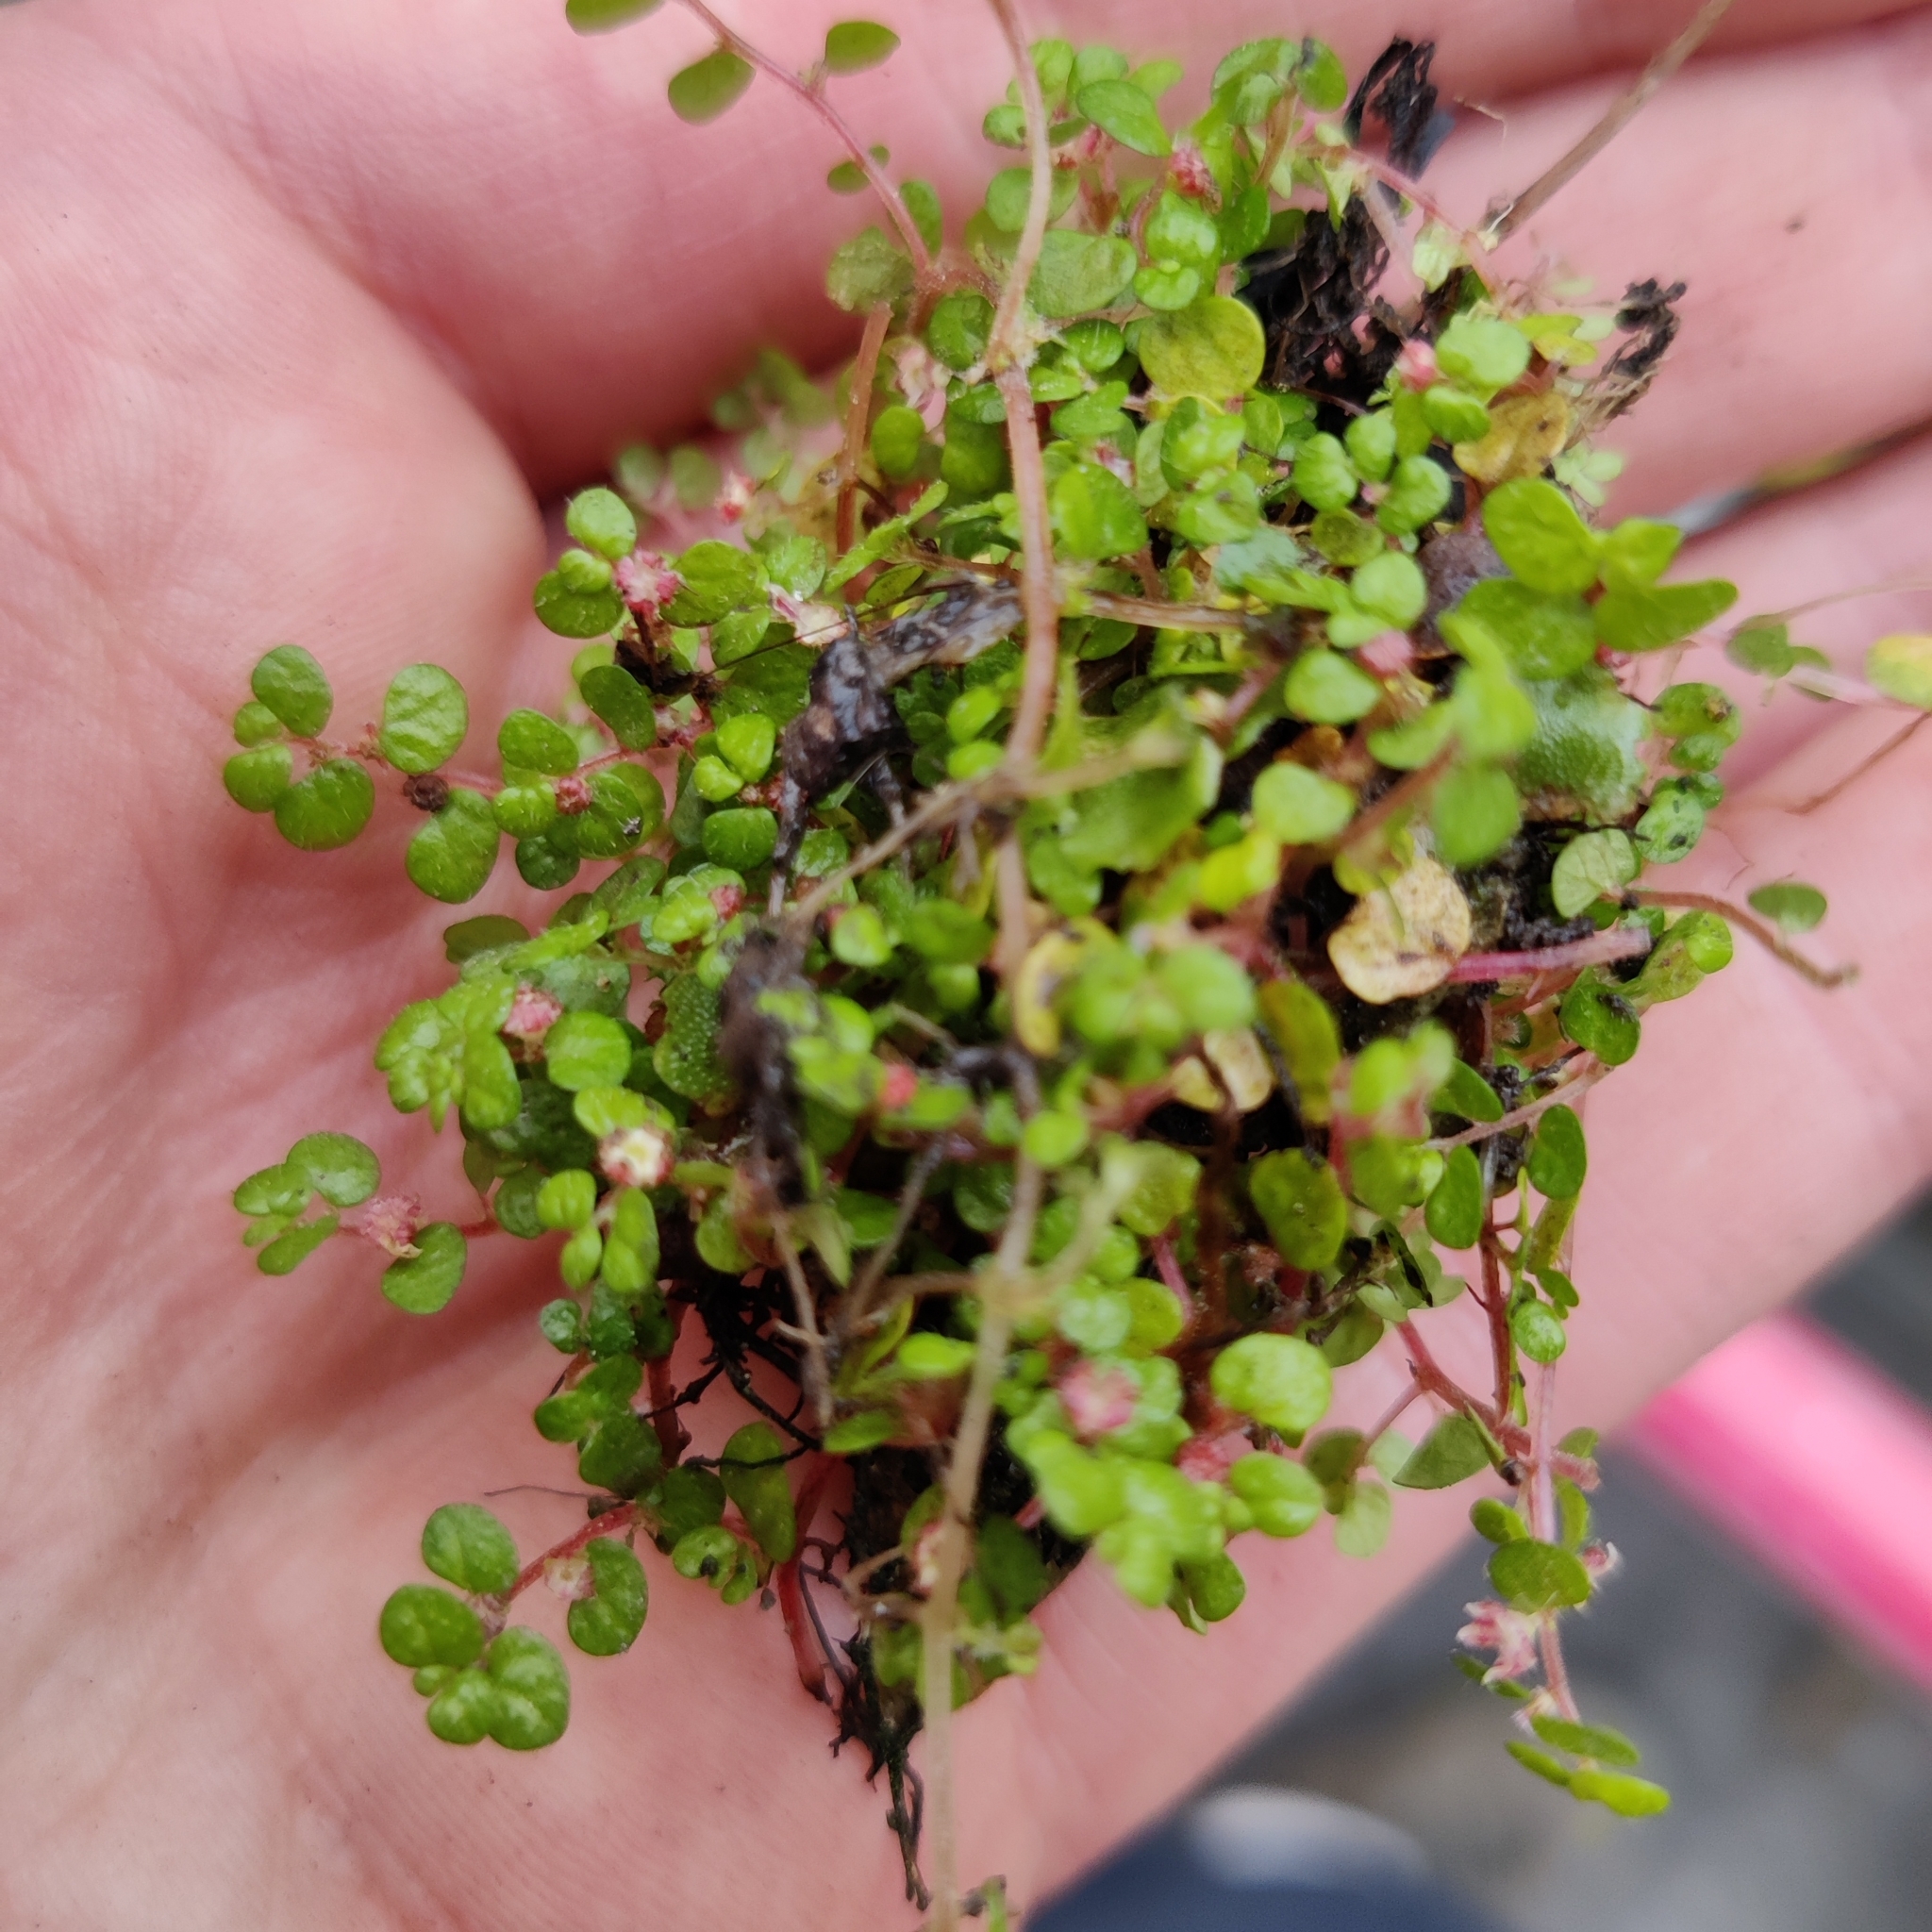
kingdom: Plantae
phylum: Tracheophyta
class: Magnoliopsida
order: Rosales
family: Urticaceae
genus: Soleirolia
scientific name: Soleirolia soleirolii
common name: Mind-your-own-business
